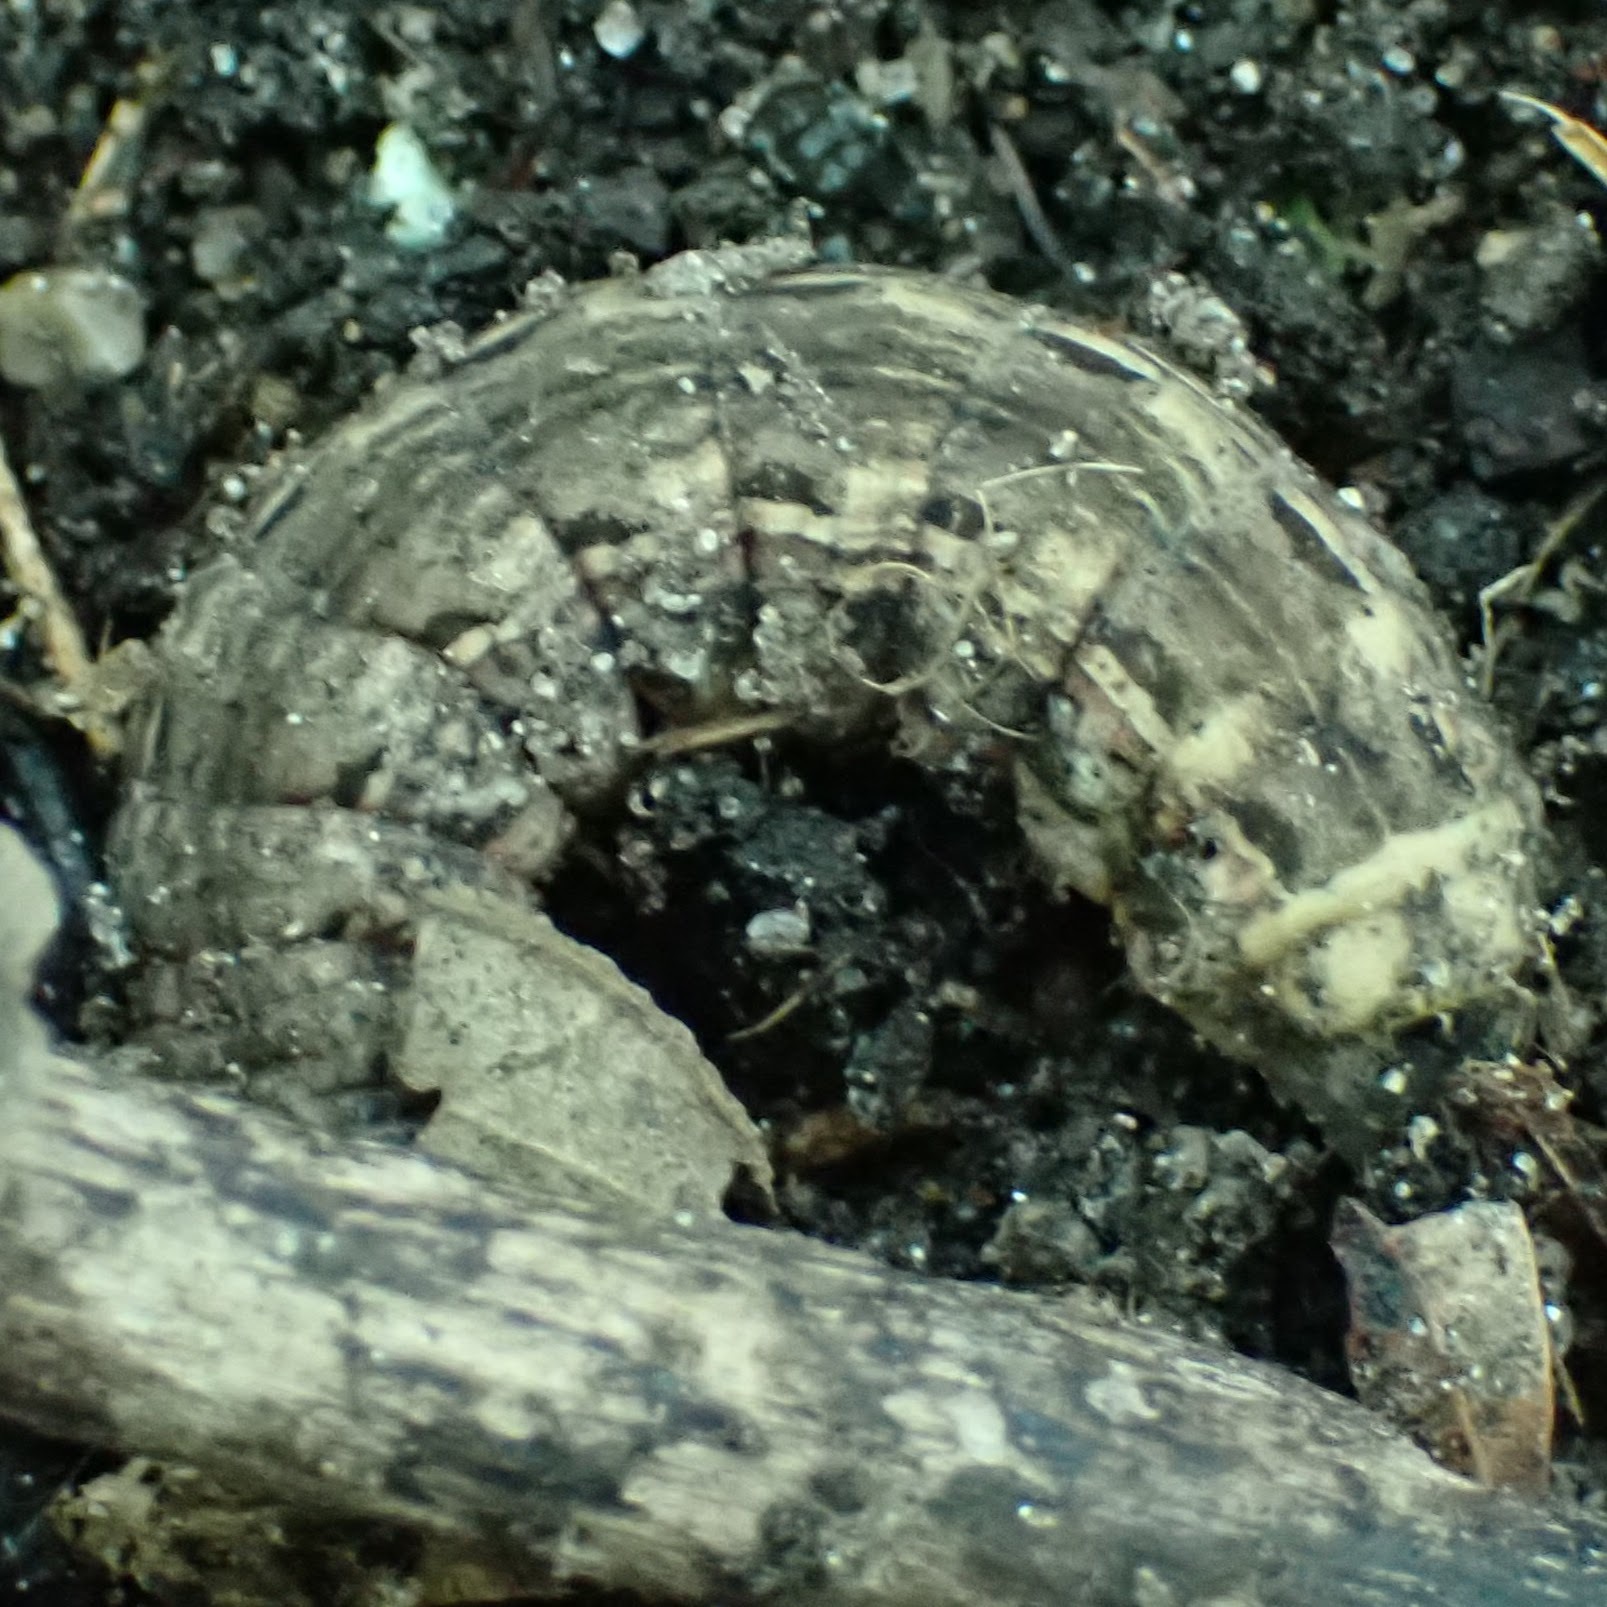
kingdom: Animalia
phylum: Arthropoda
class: Insecta
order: Lepidoptera
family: Noctuidae
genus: Noctua
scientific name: Noctua pronuba
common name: Large yellow underwing
